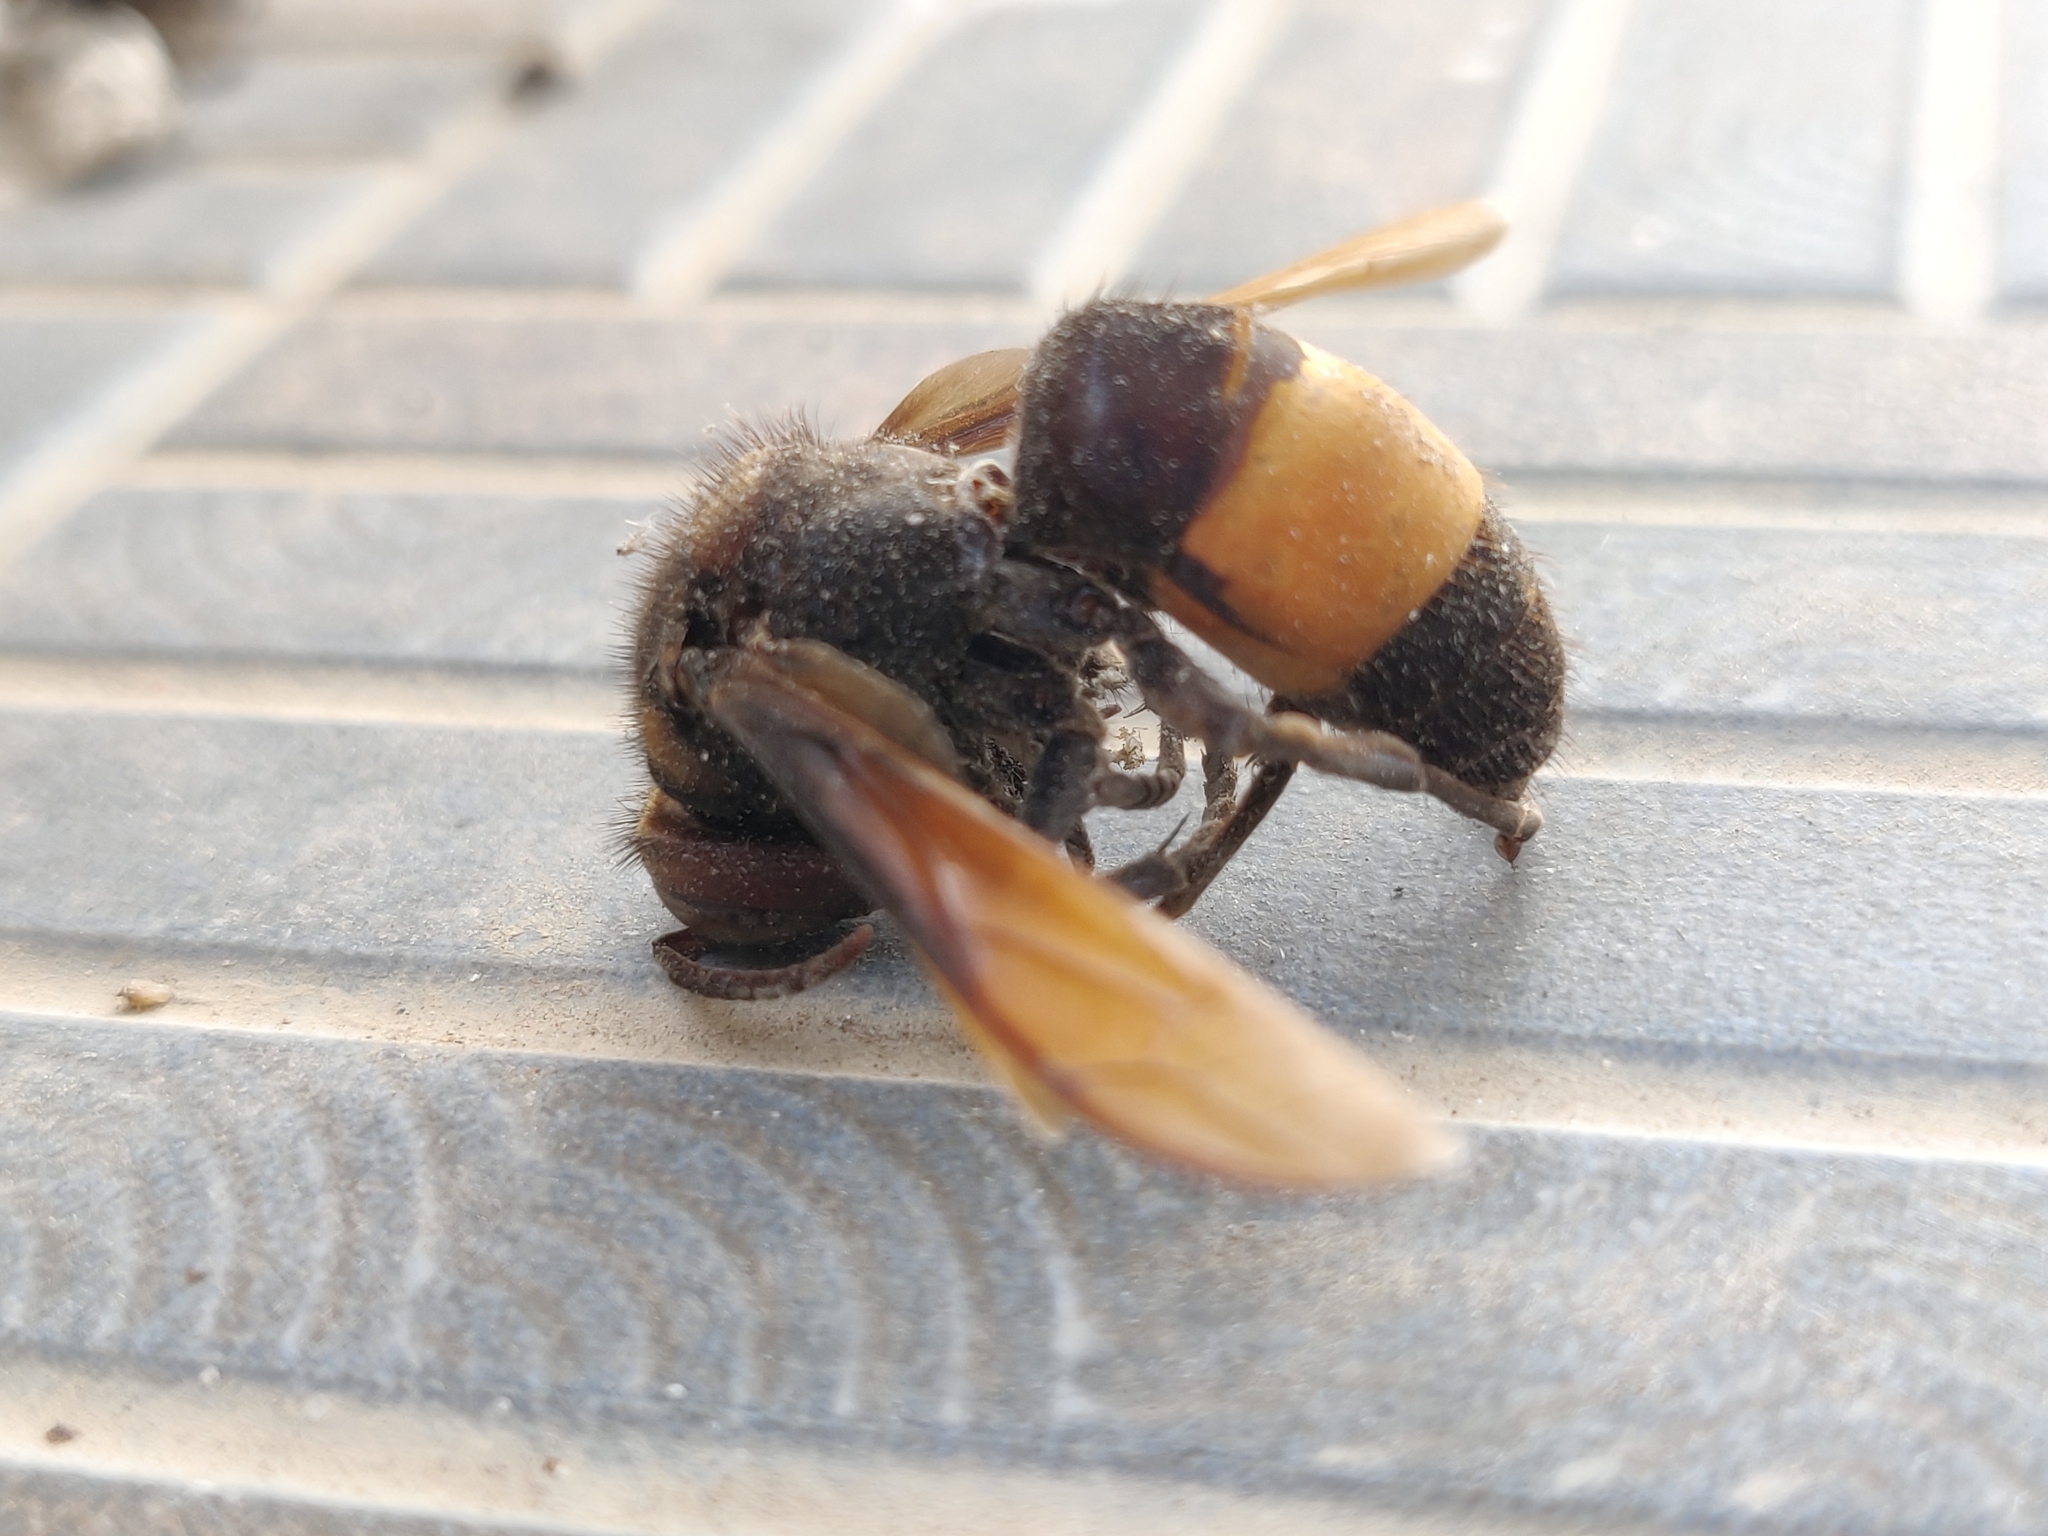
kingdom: Animalia
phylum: Arthropoda
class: Insecta
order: Hymenoptera
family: Vespidae
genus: Vespa
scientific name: Vespa tropica
